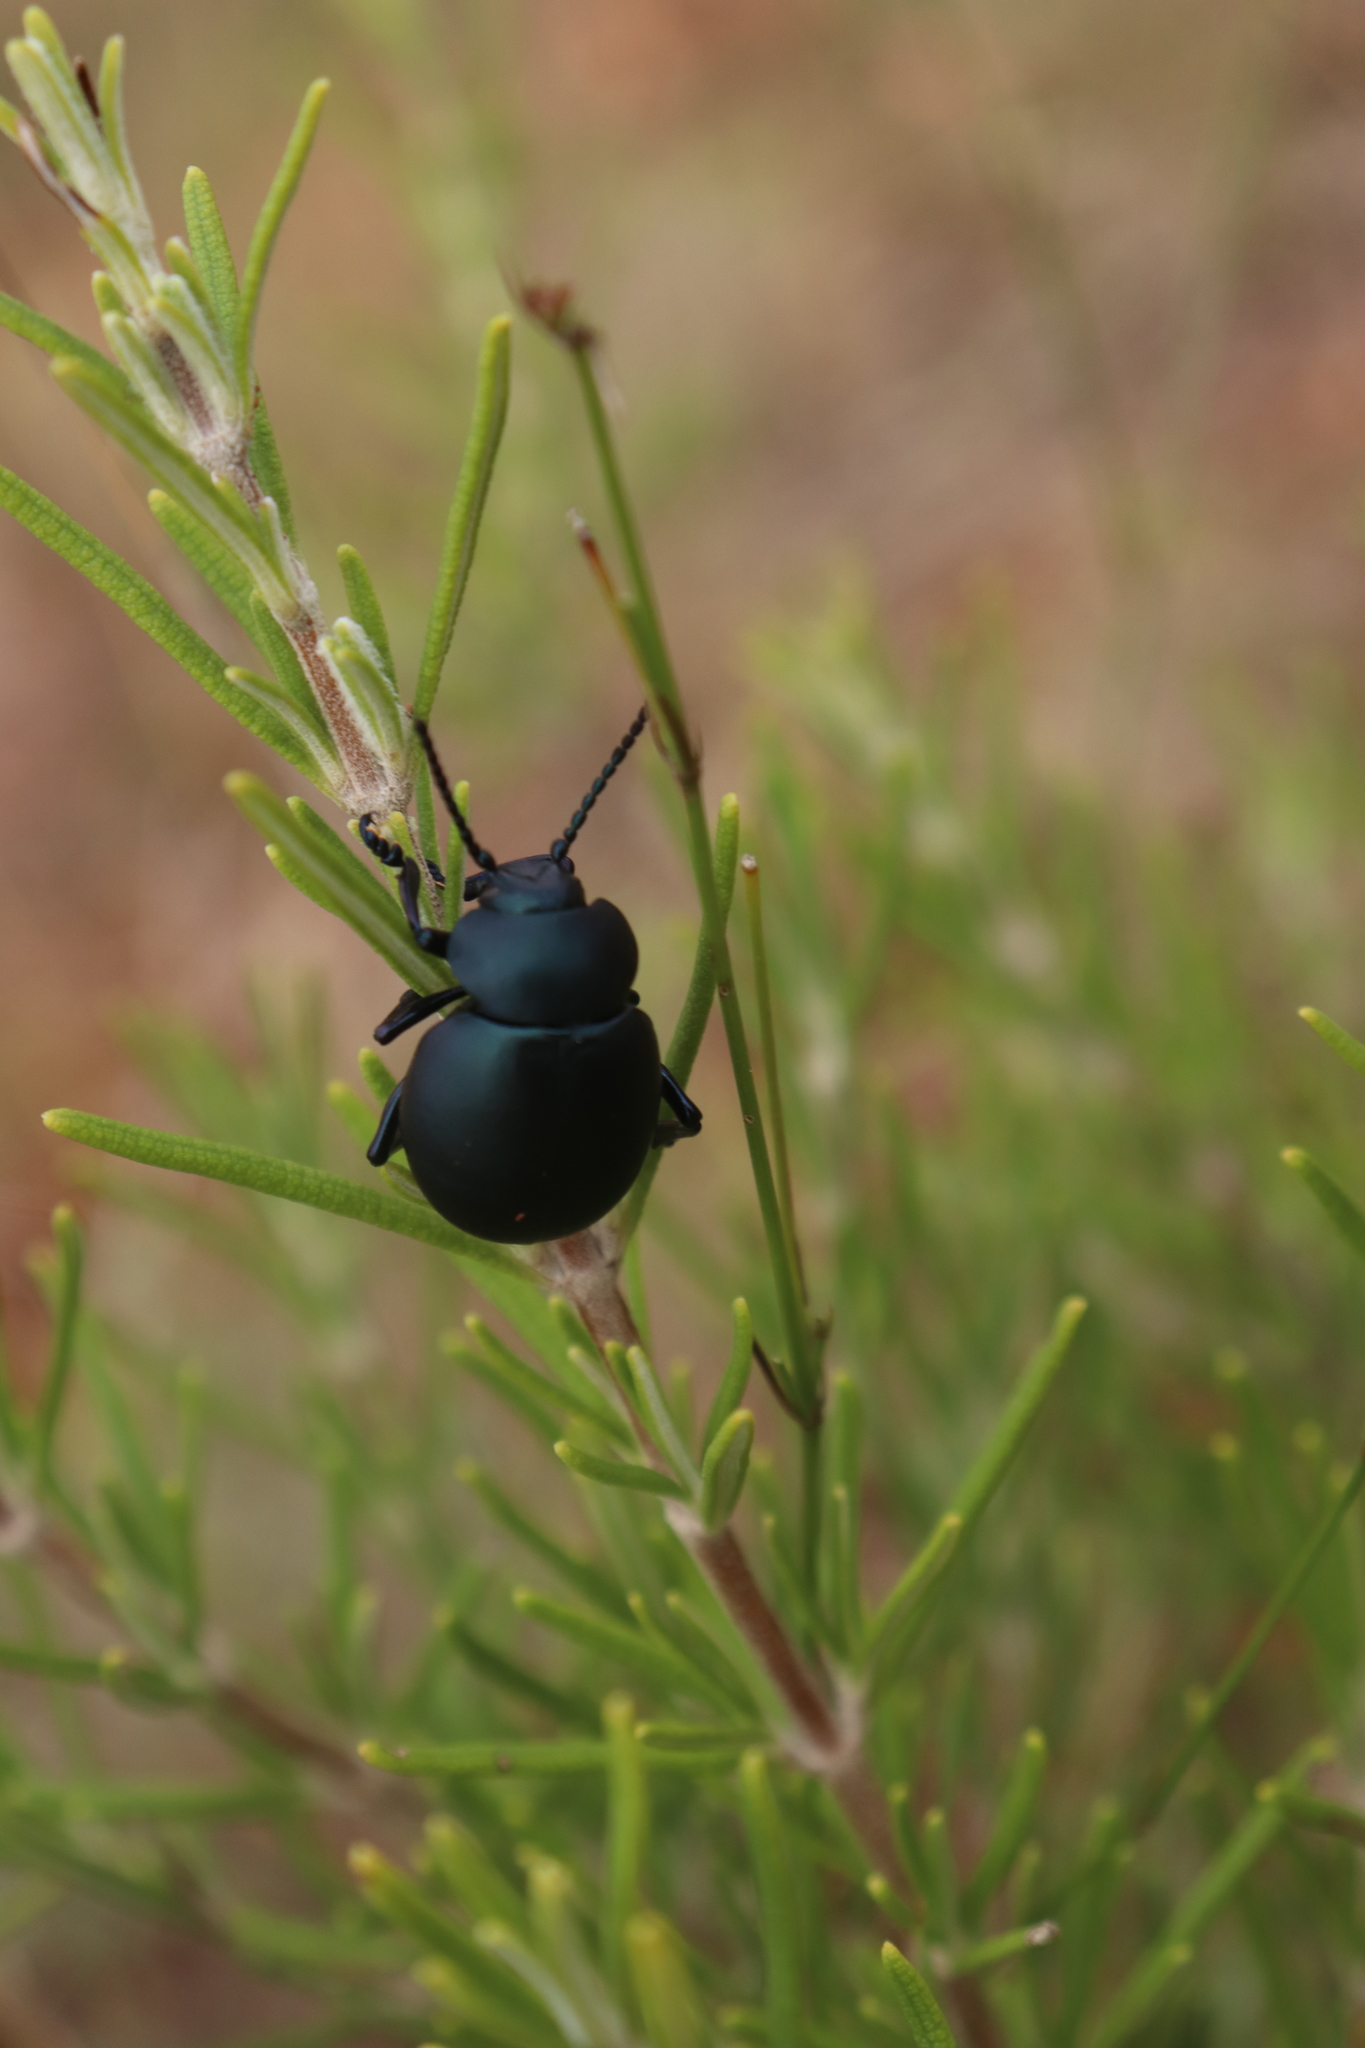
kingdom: Animalia
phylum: Arthropoda
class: Insecta
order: Coleoptera
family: Chrysomelidae
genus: Timarcha
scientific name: Timarcha tenebricosa
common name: Bloody-nosed beetle
